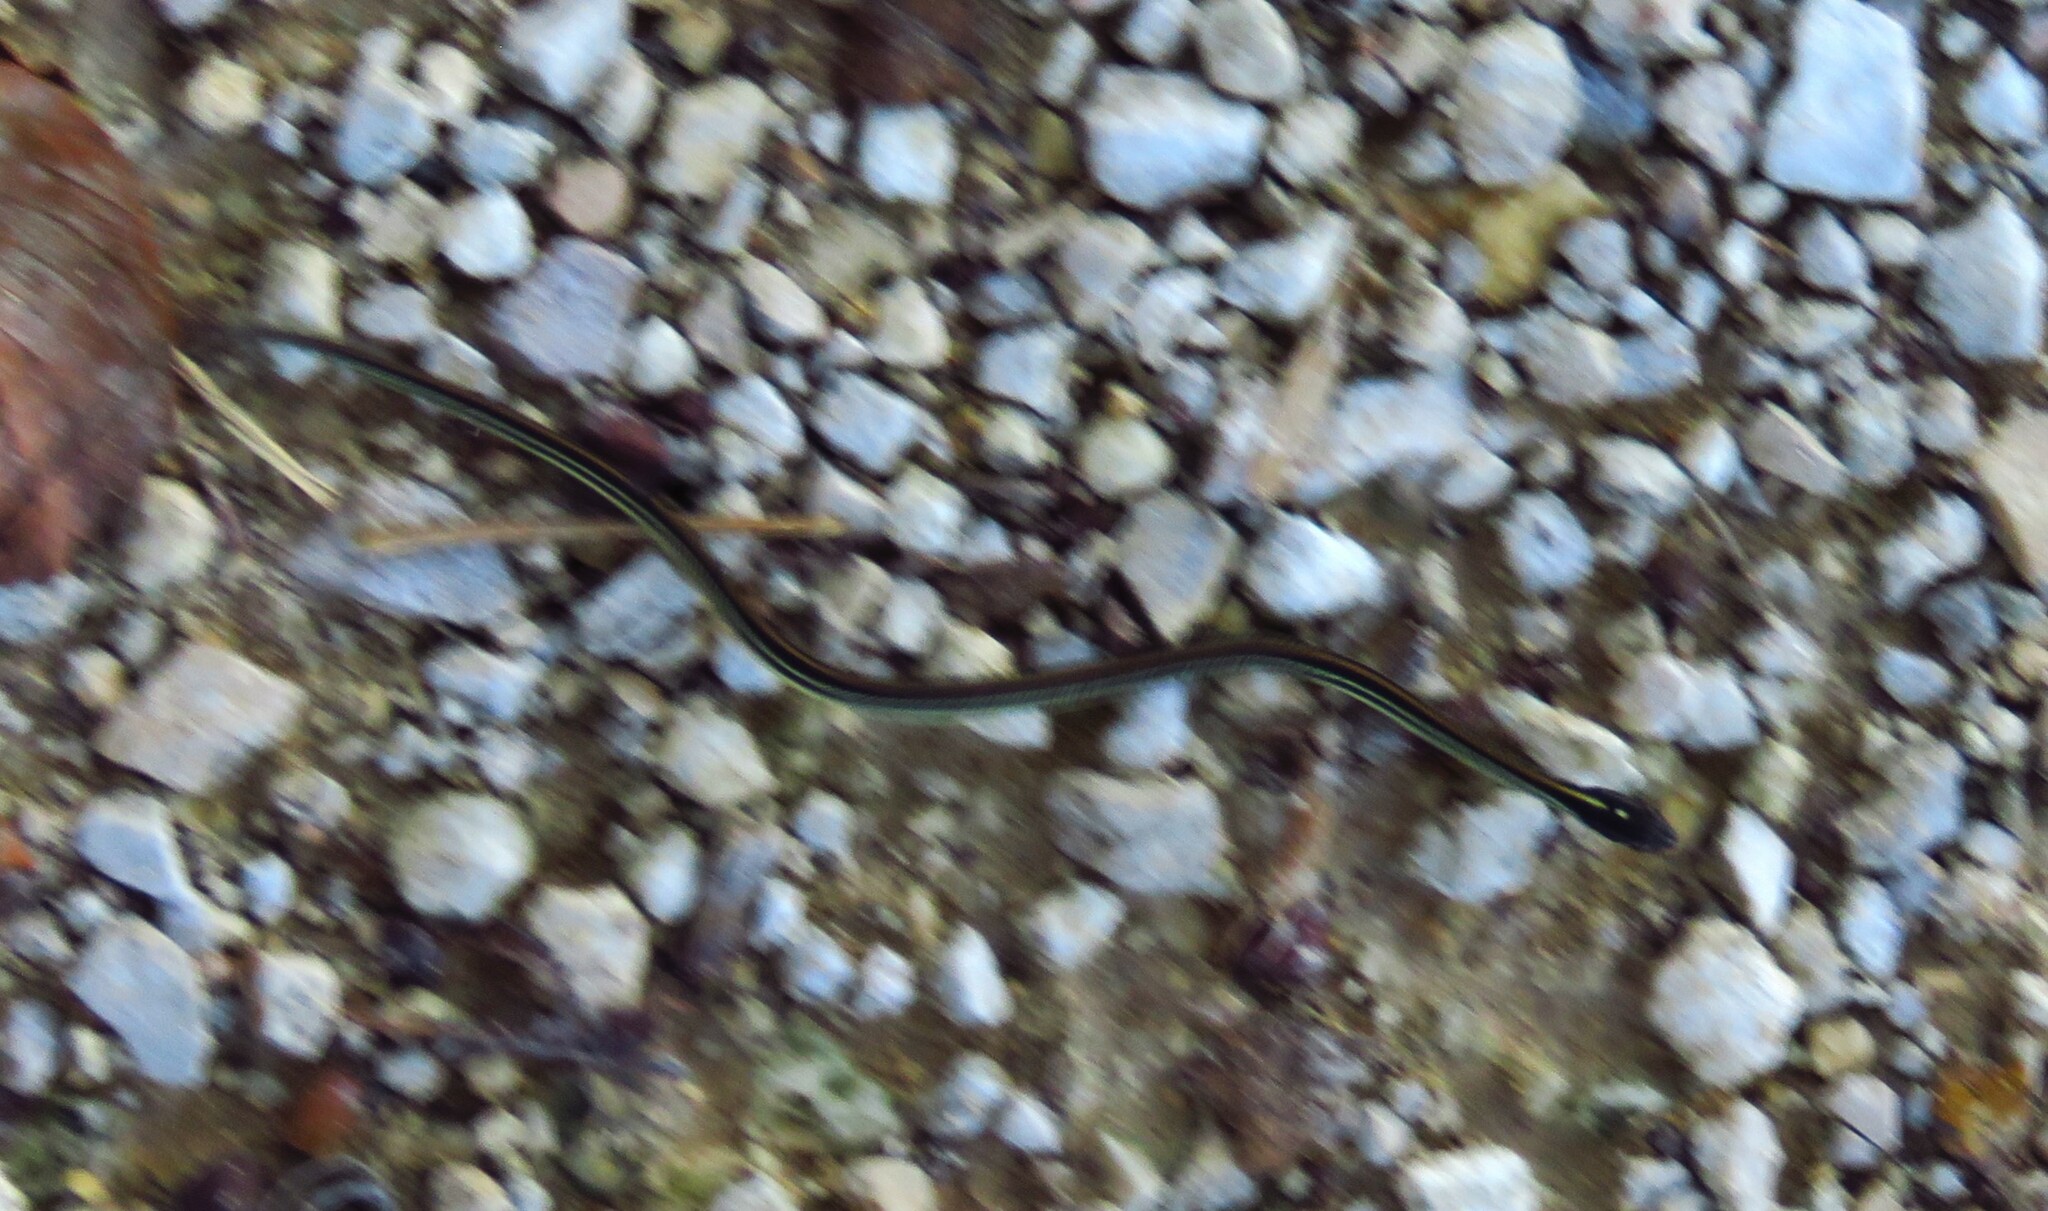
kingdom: Animalia
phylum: Chordata
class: Squamata
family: Colubridae
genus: Thamnophis
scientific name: Thamnophis proximus
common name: Western ribbon snake
